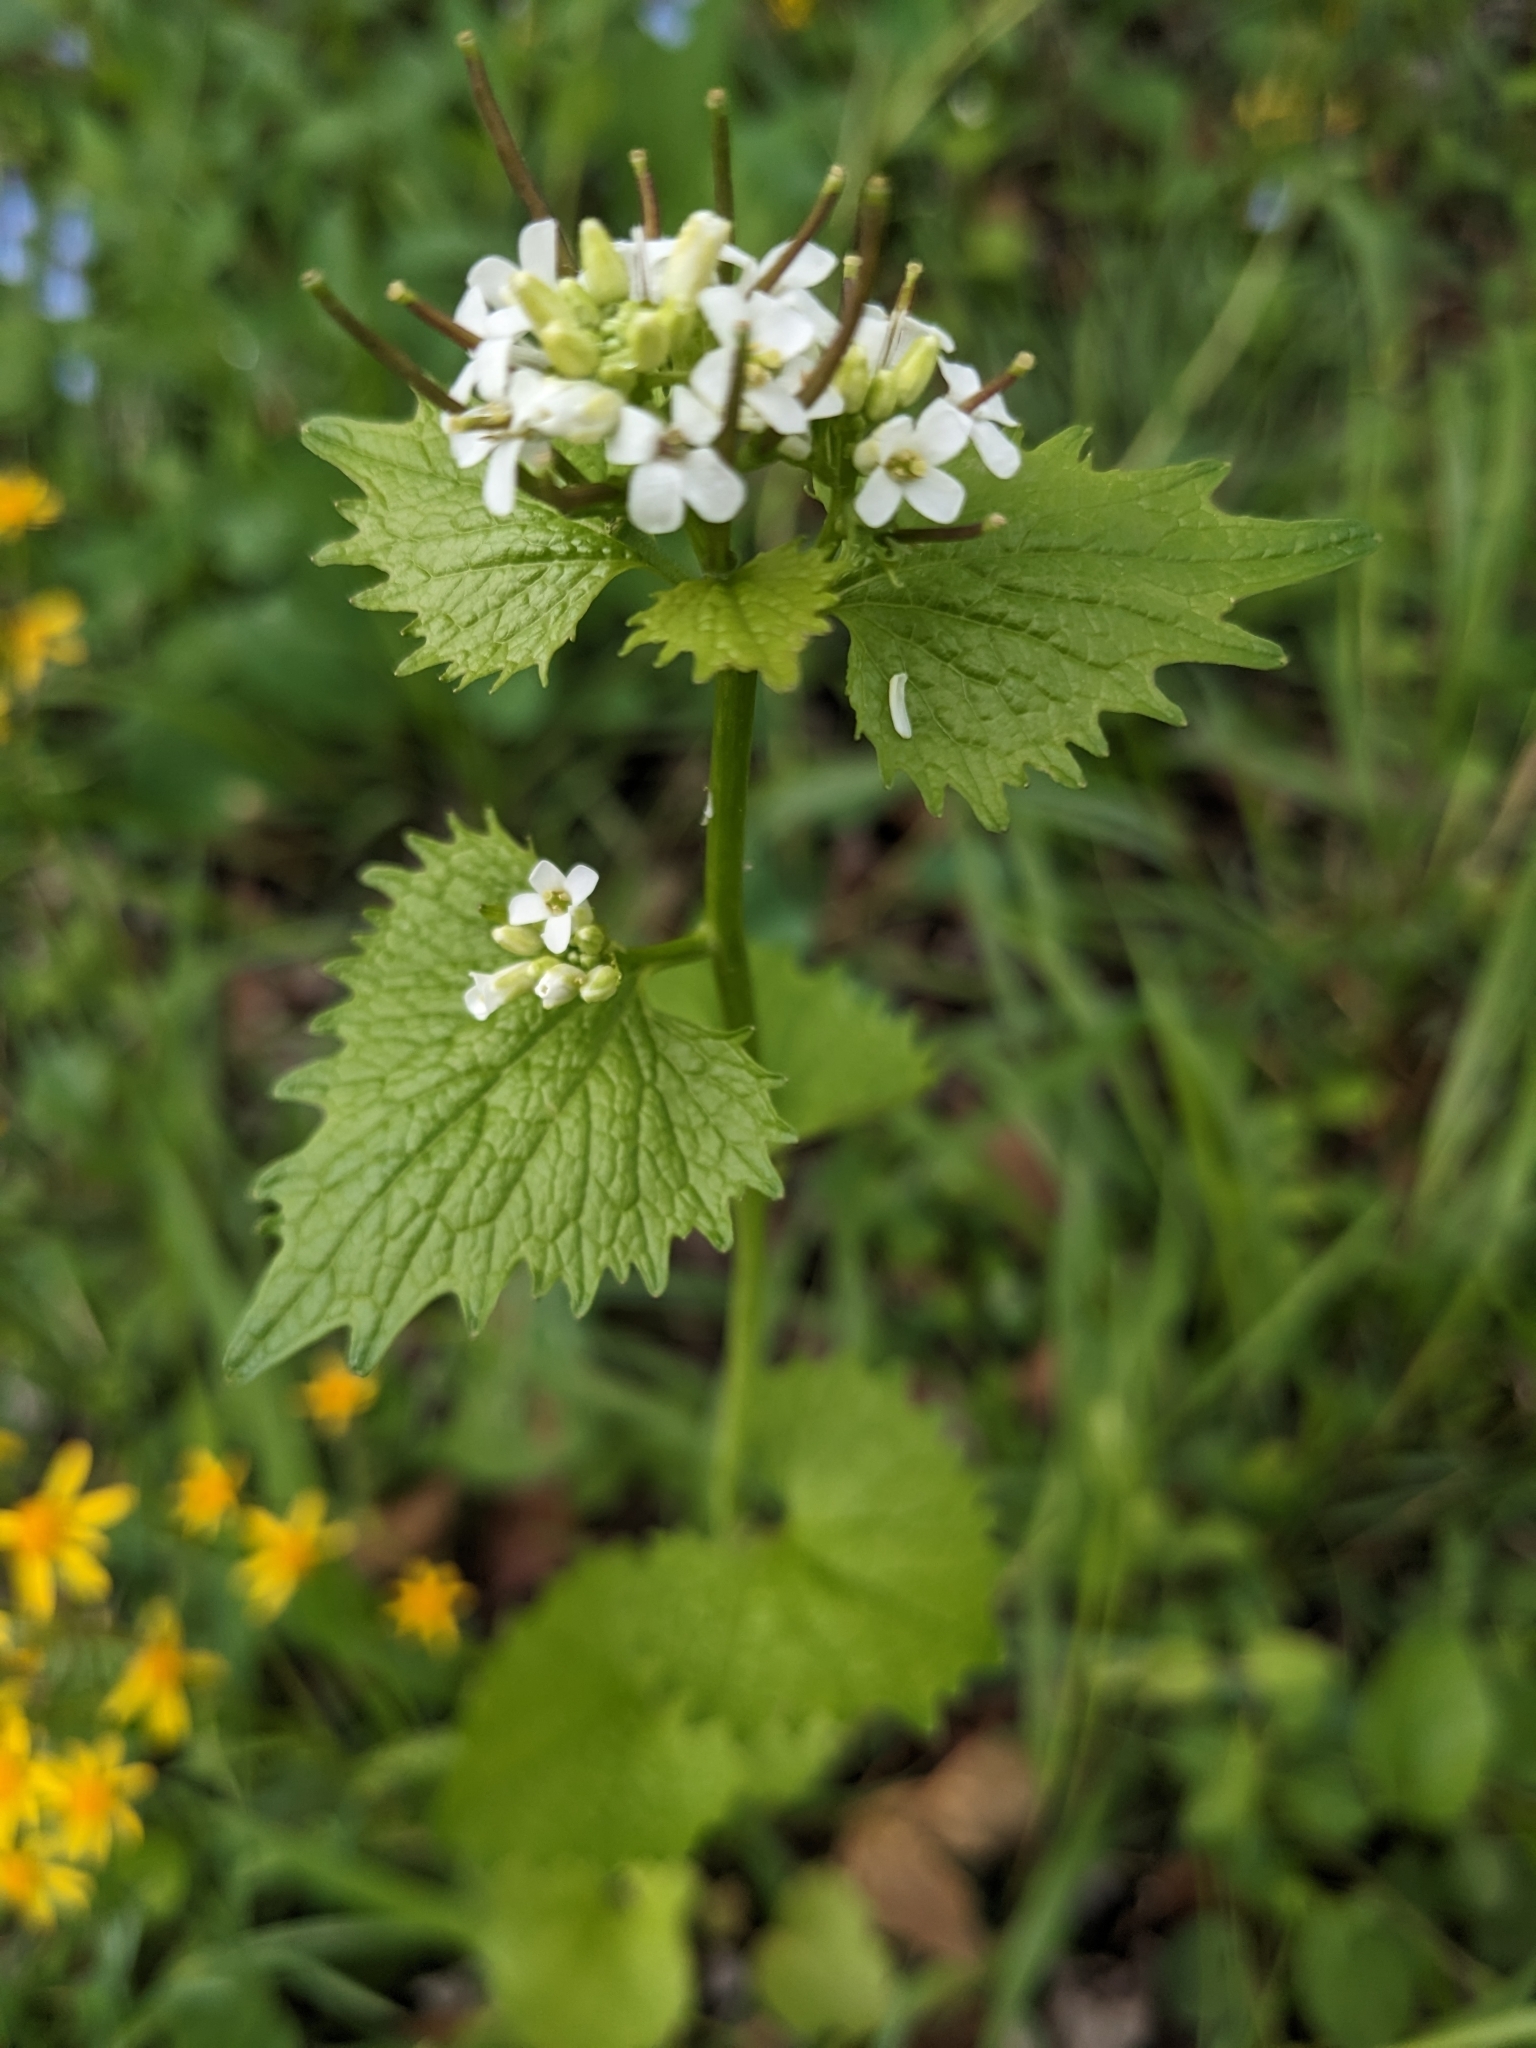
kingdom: Plantae
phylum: Tracheophyta
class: Magnoliopsida
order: Brassicales
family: Brassicaceae
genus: Alliaria
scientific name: Alliaria petiolata
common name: Garlic mustard
